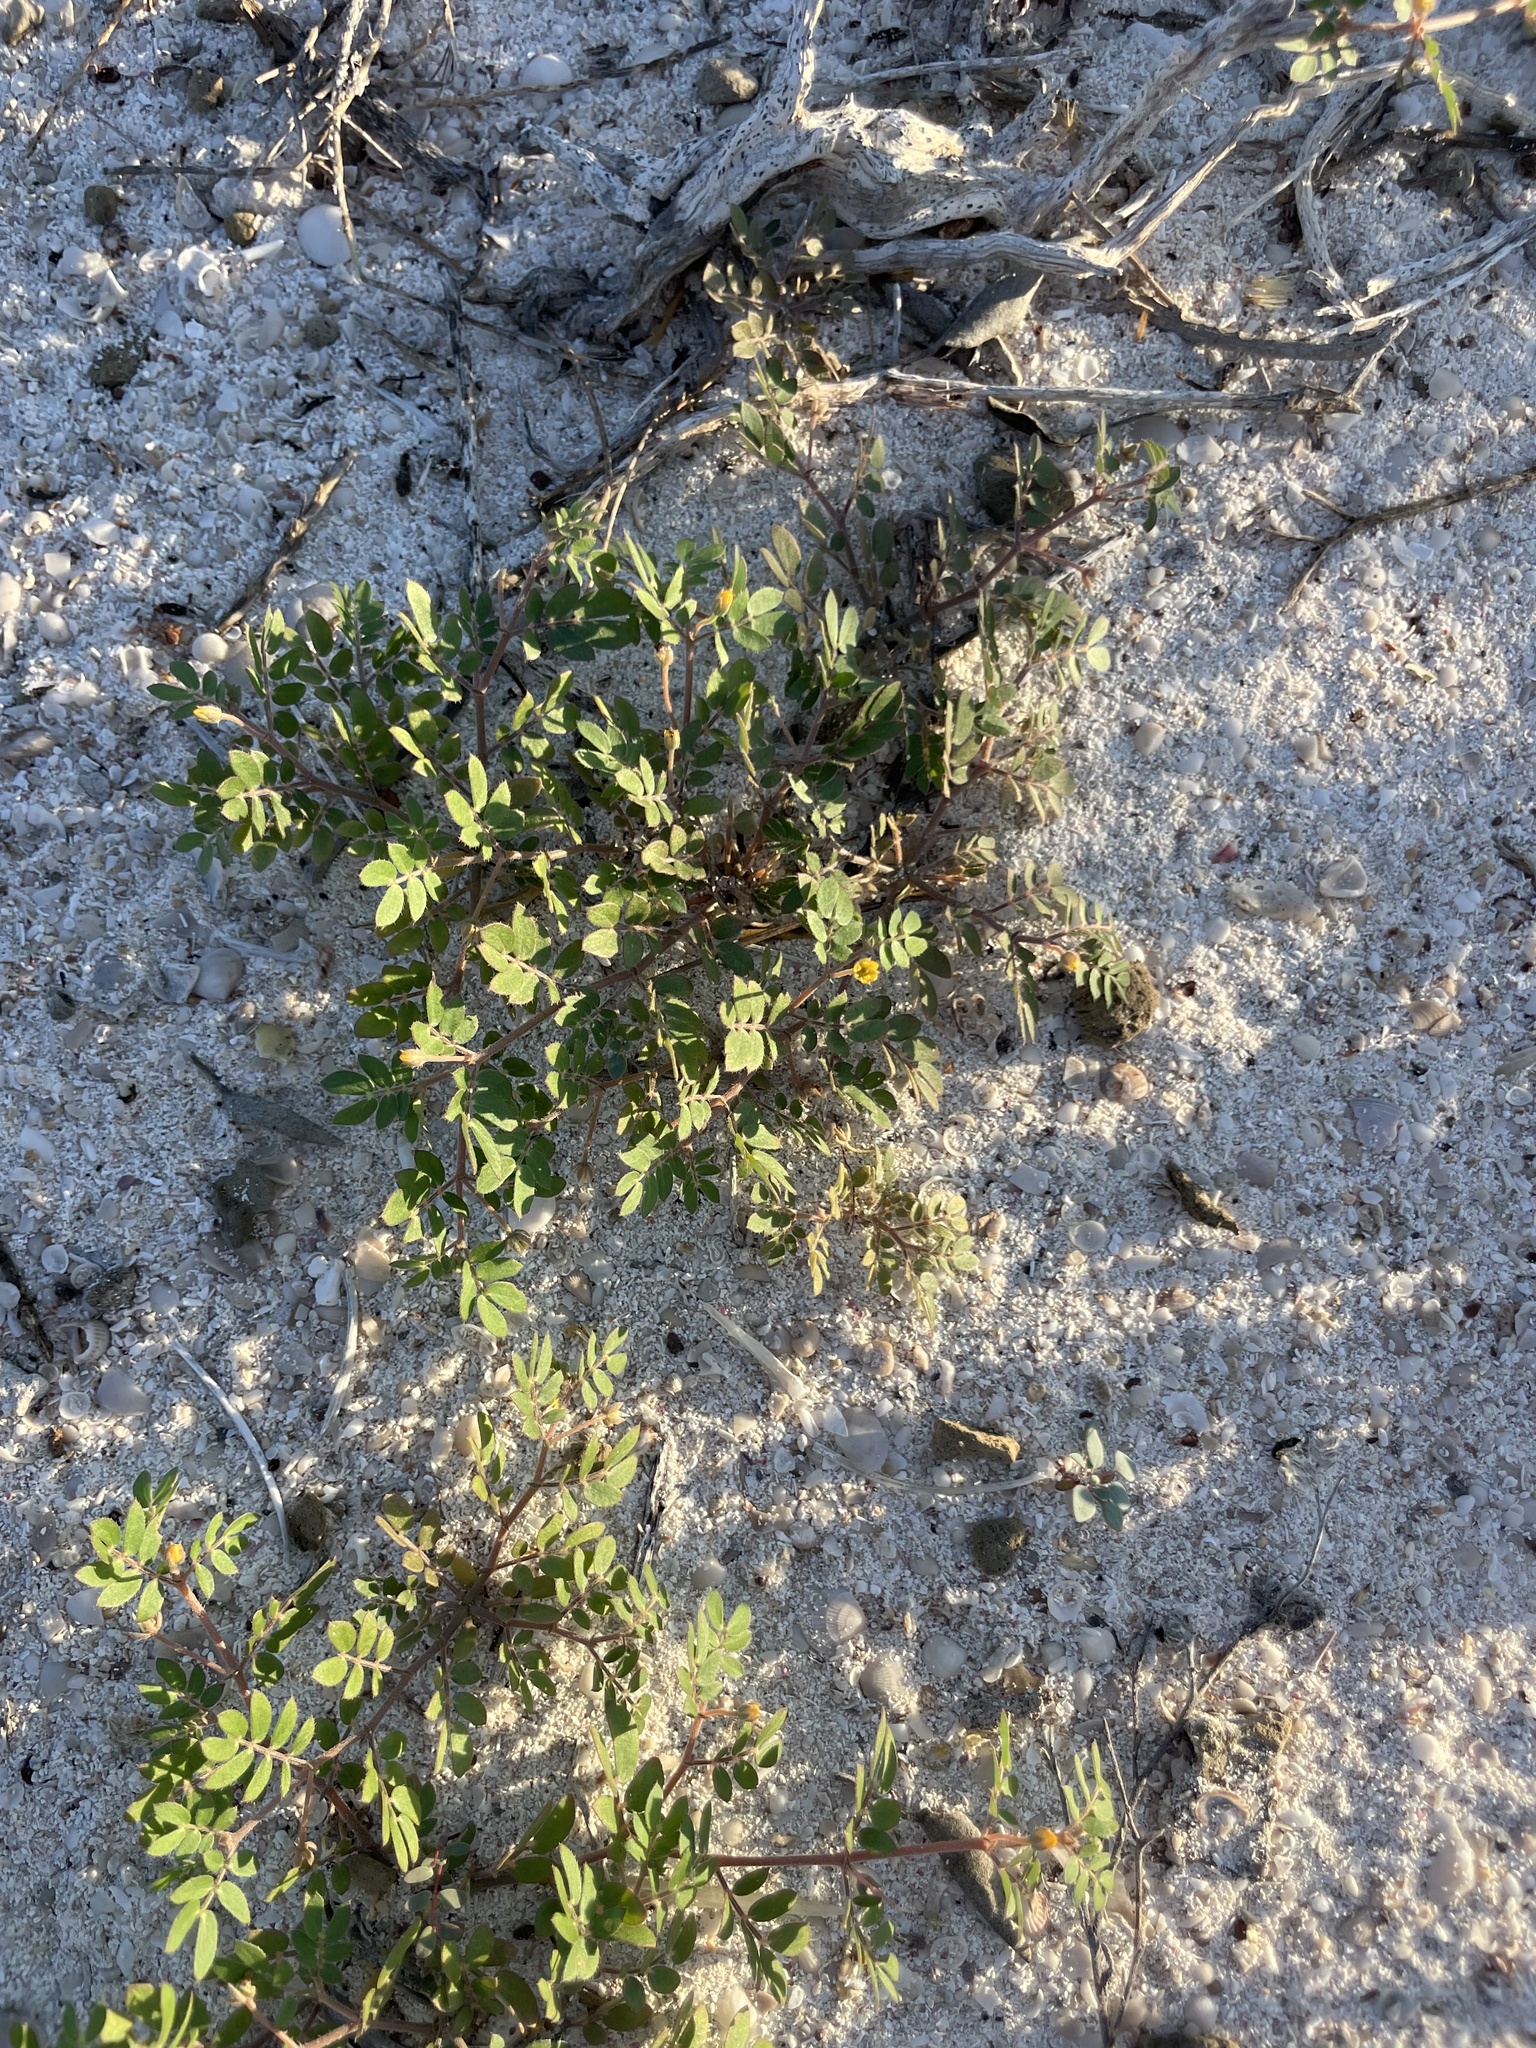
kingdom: Plantae
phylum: Tracheophyta
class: Magnoliopsida
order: Zygophyllales
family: Zygophyllaceae
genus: Kallstroemia
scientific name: Kallstroemia californica
